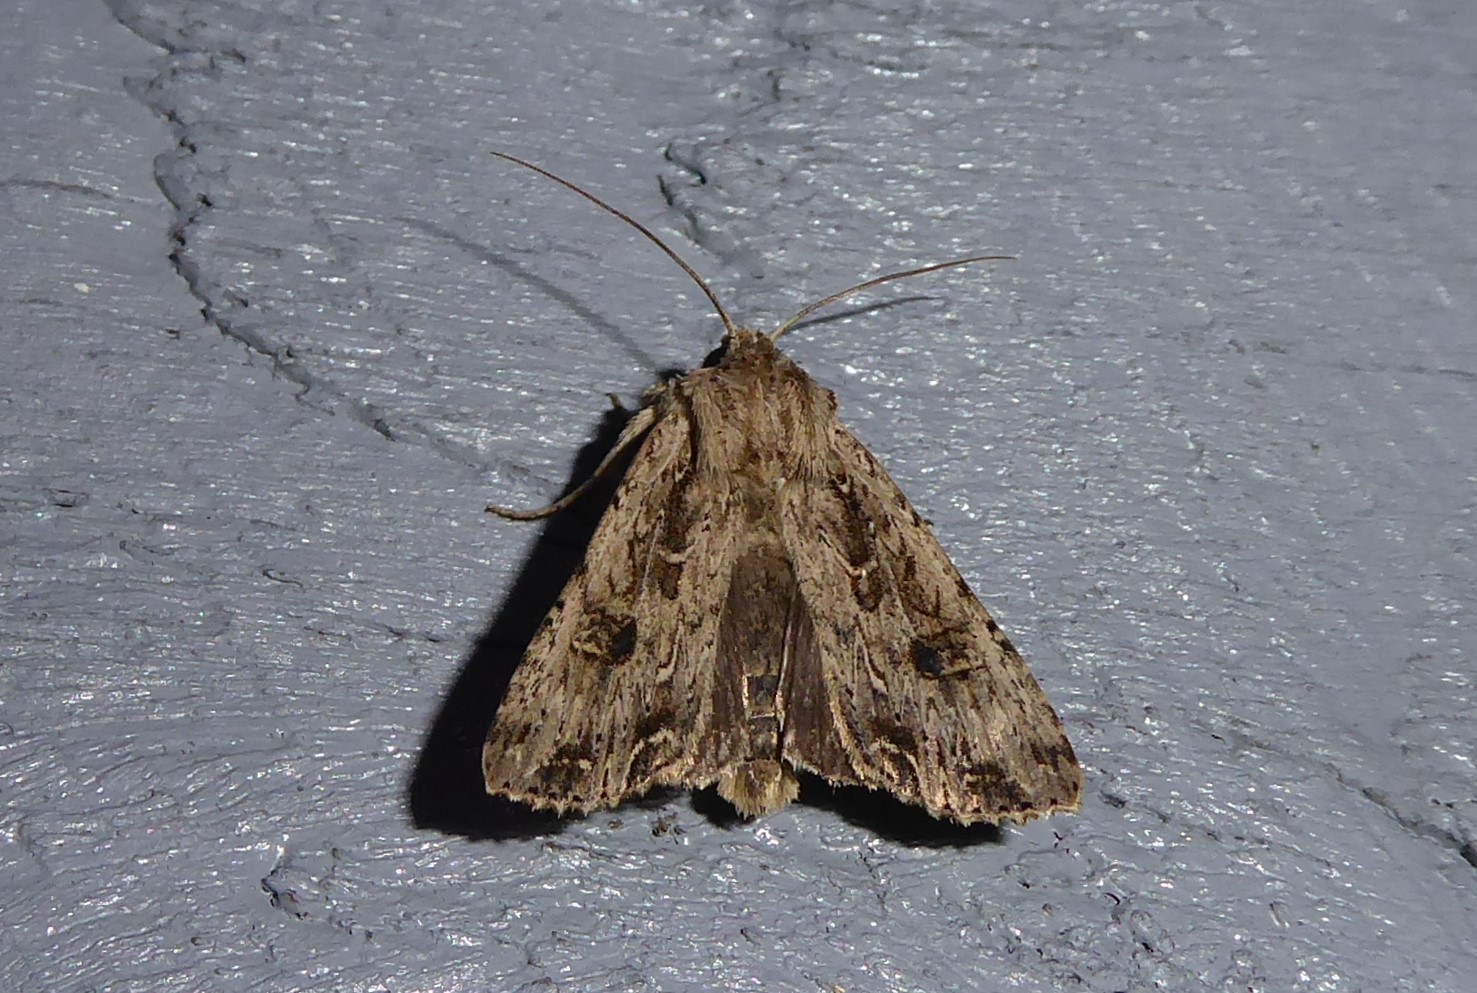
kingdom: Animalia
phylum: Arthropoda
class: Insecta
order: Lepidoptera
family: Noctuidae
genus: Ichneutica
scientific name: Ichneutica lignana
